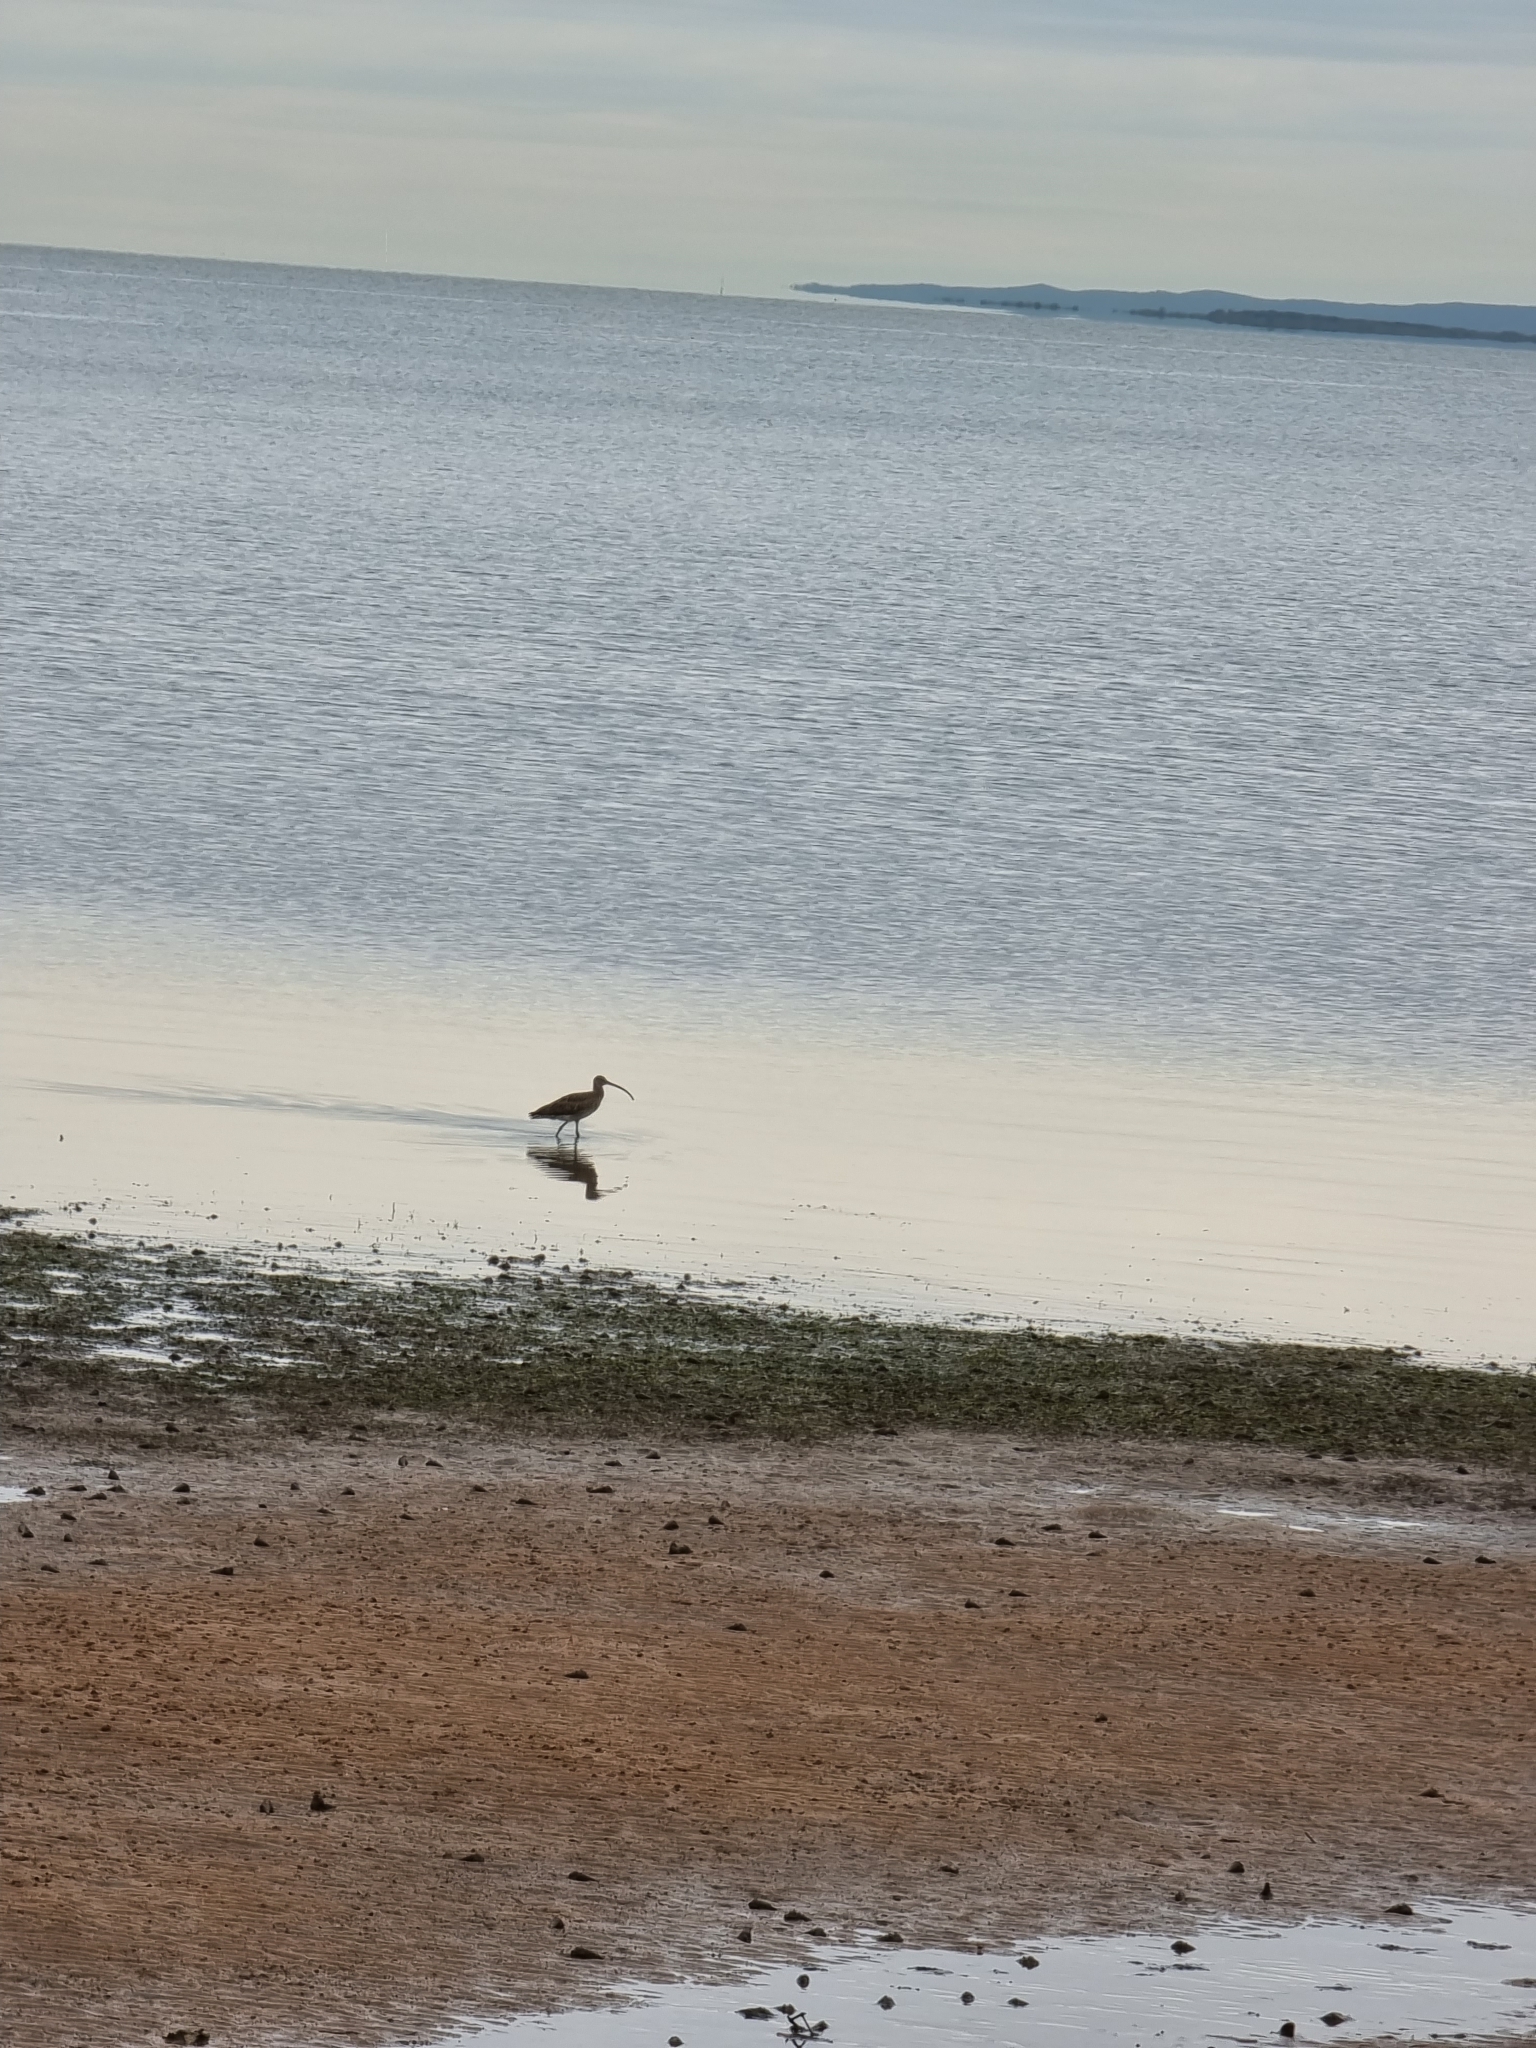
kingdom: Animalia
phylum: Chordata
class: Aves
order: Charadriiformes
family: Scolopacidae
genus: Numenius
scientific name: Numenius madagascariensis
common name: Far eastern curlew
